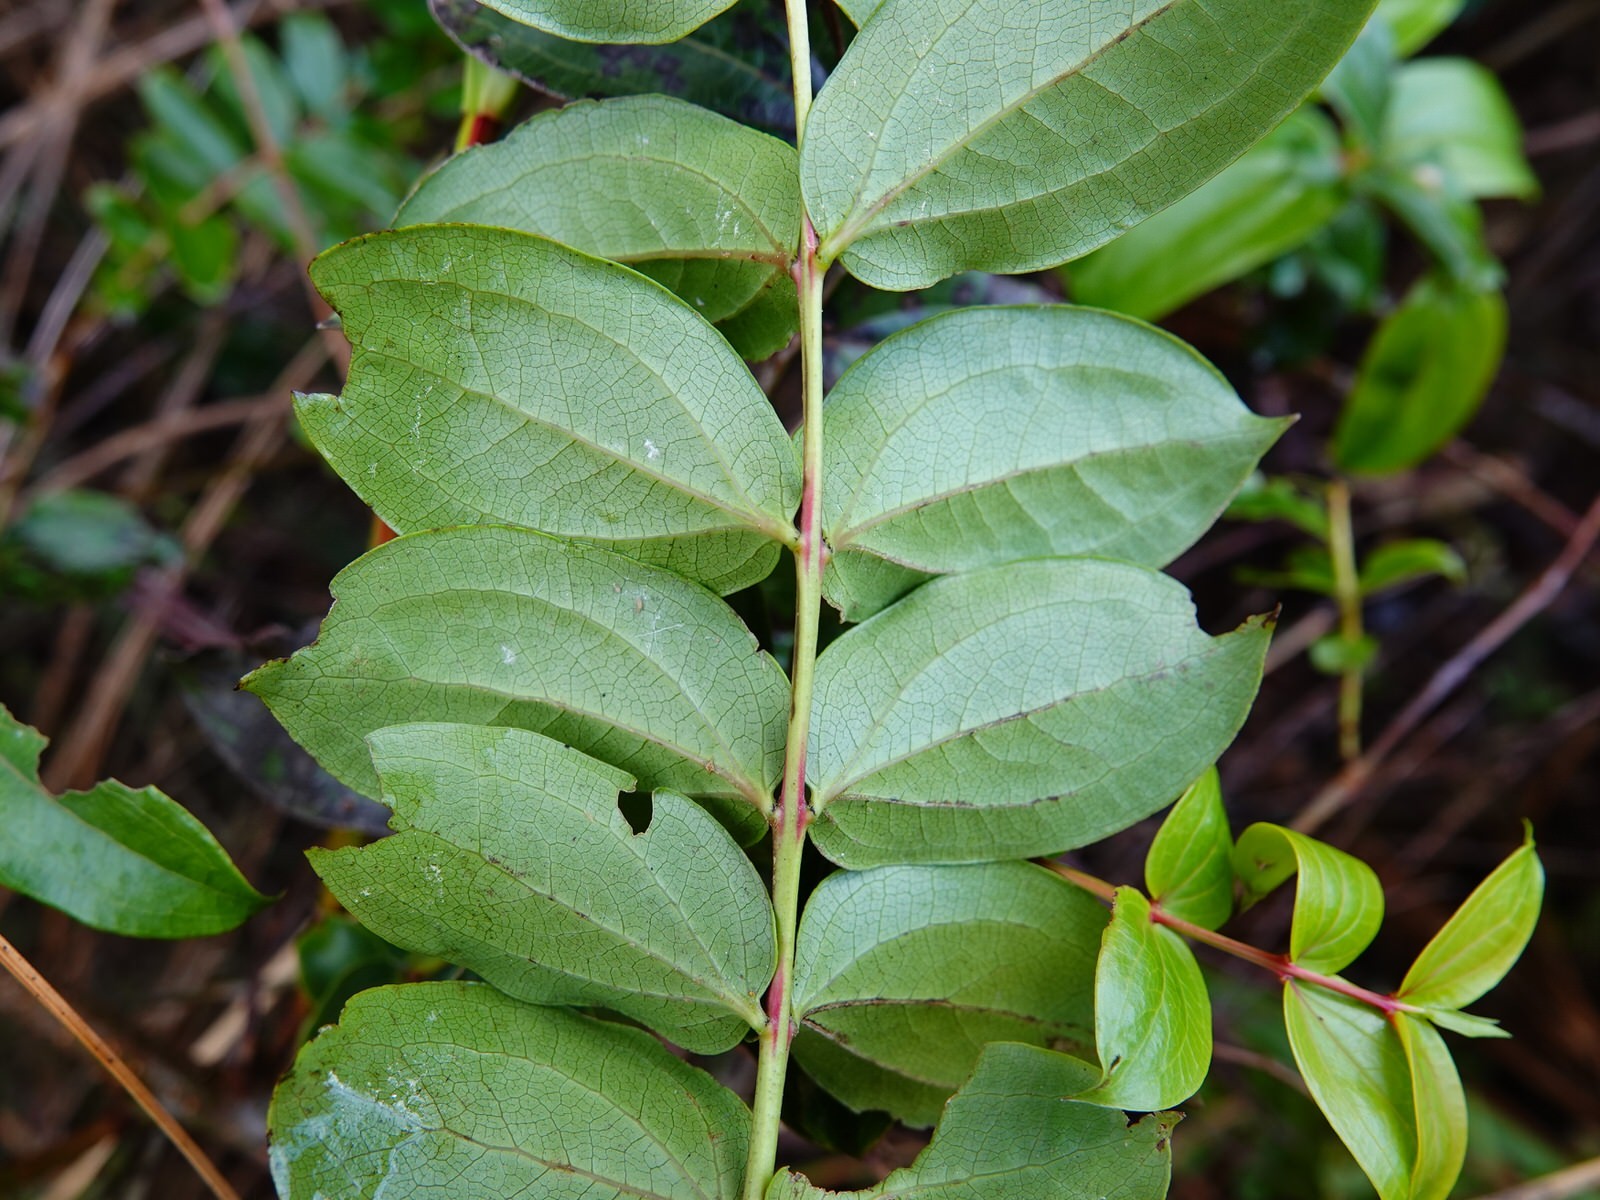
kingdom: Plantae
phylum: Tracheophyta
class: Magnoliopsida
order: Cucurbitales
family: Coriariaceae
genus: Coriaria
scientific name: Coriaria arborea
